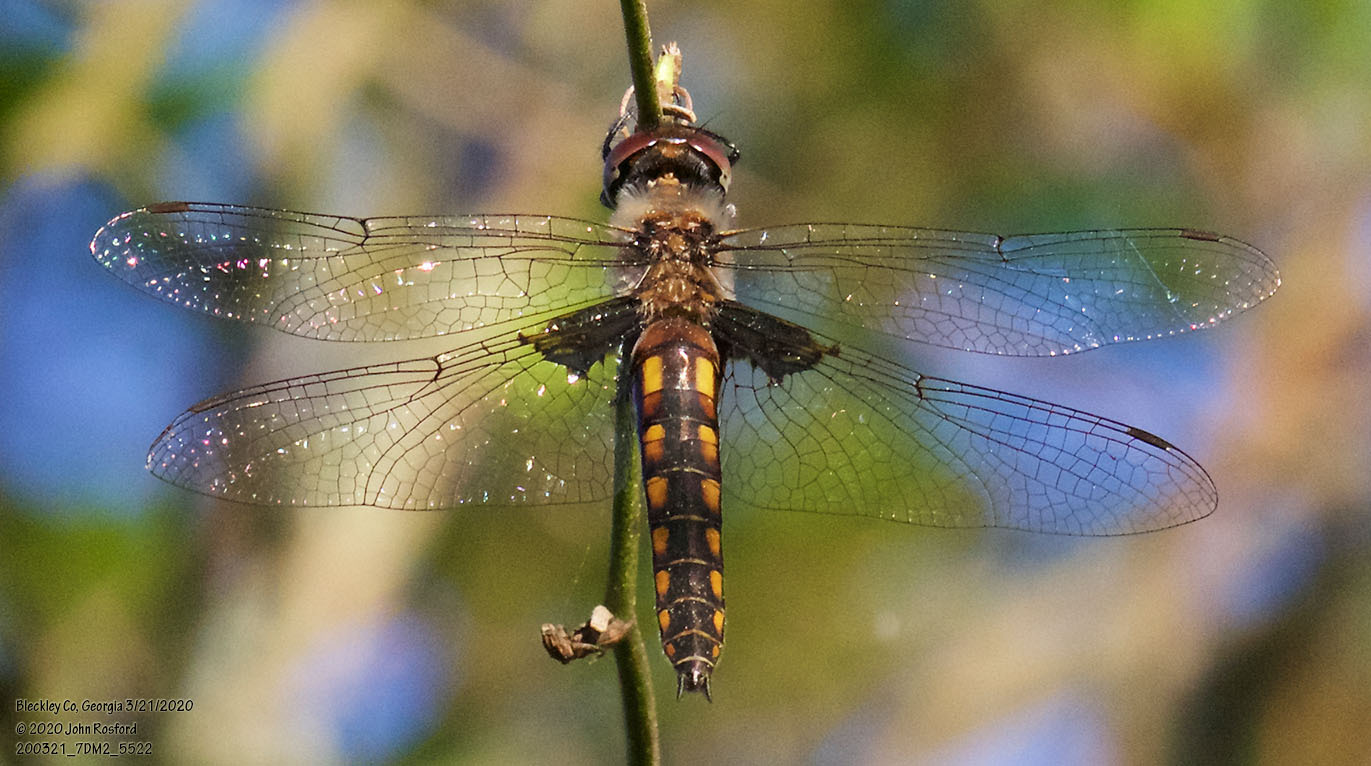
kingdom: Animalia
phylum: Arthropoda
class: Insecta
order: Odonata
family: Corduliidae
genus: Epitheca
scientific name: Epitheca cynosura
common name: Common baskettail
